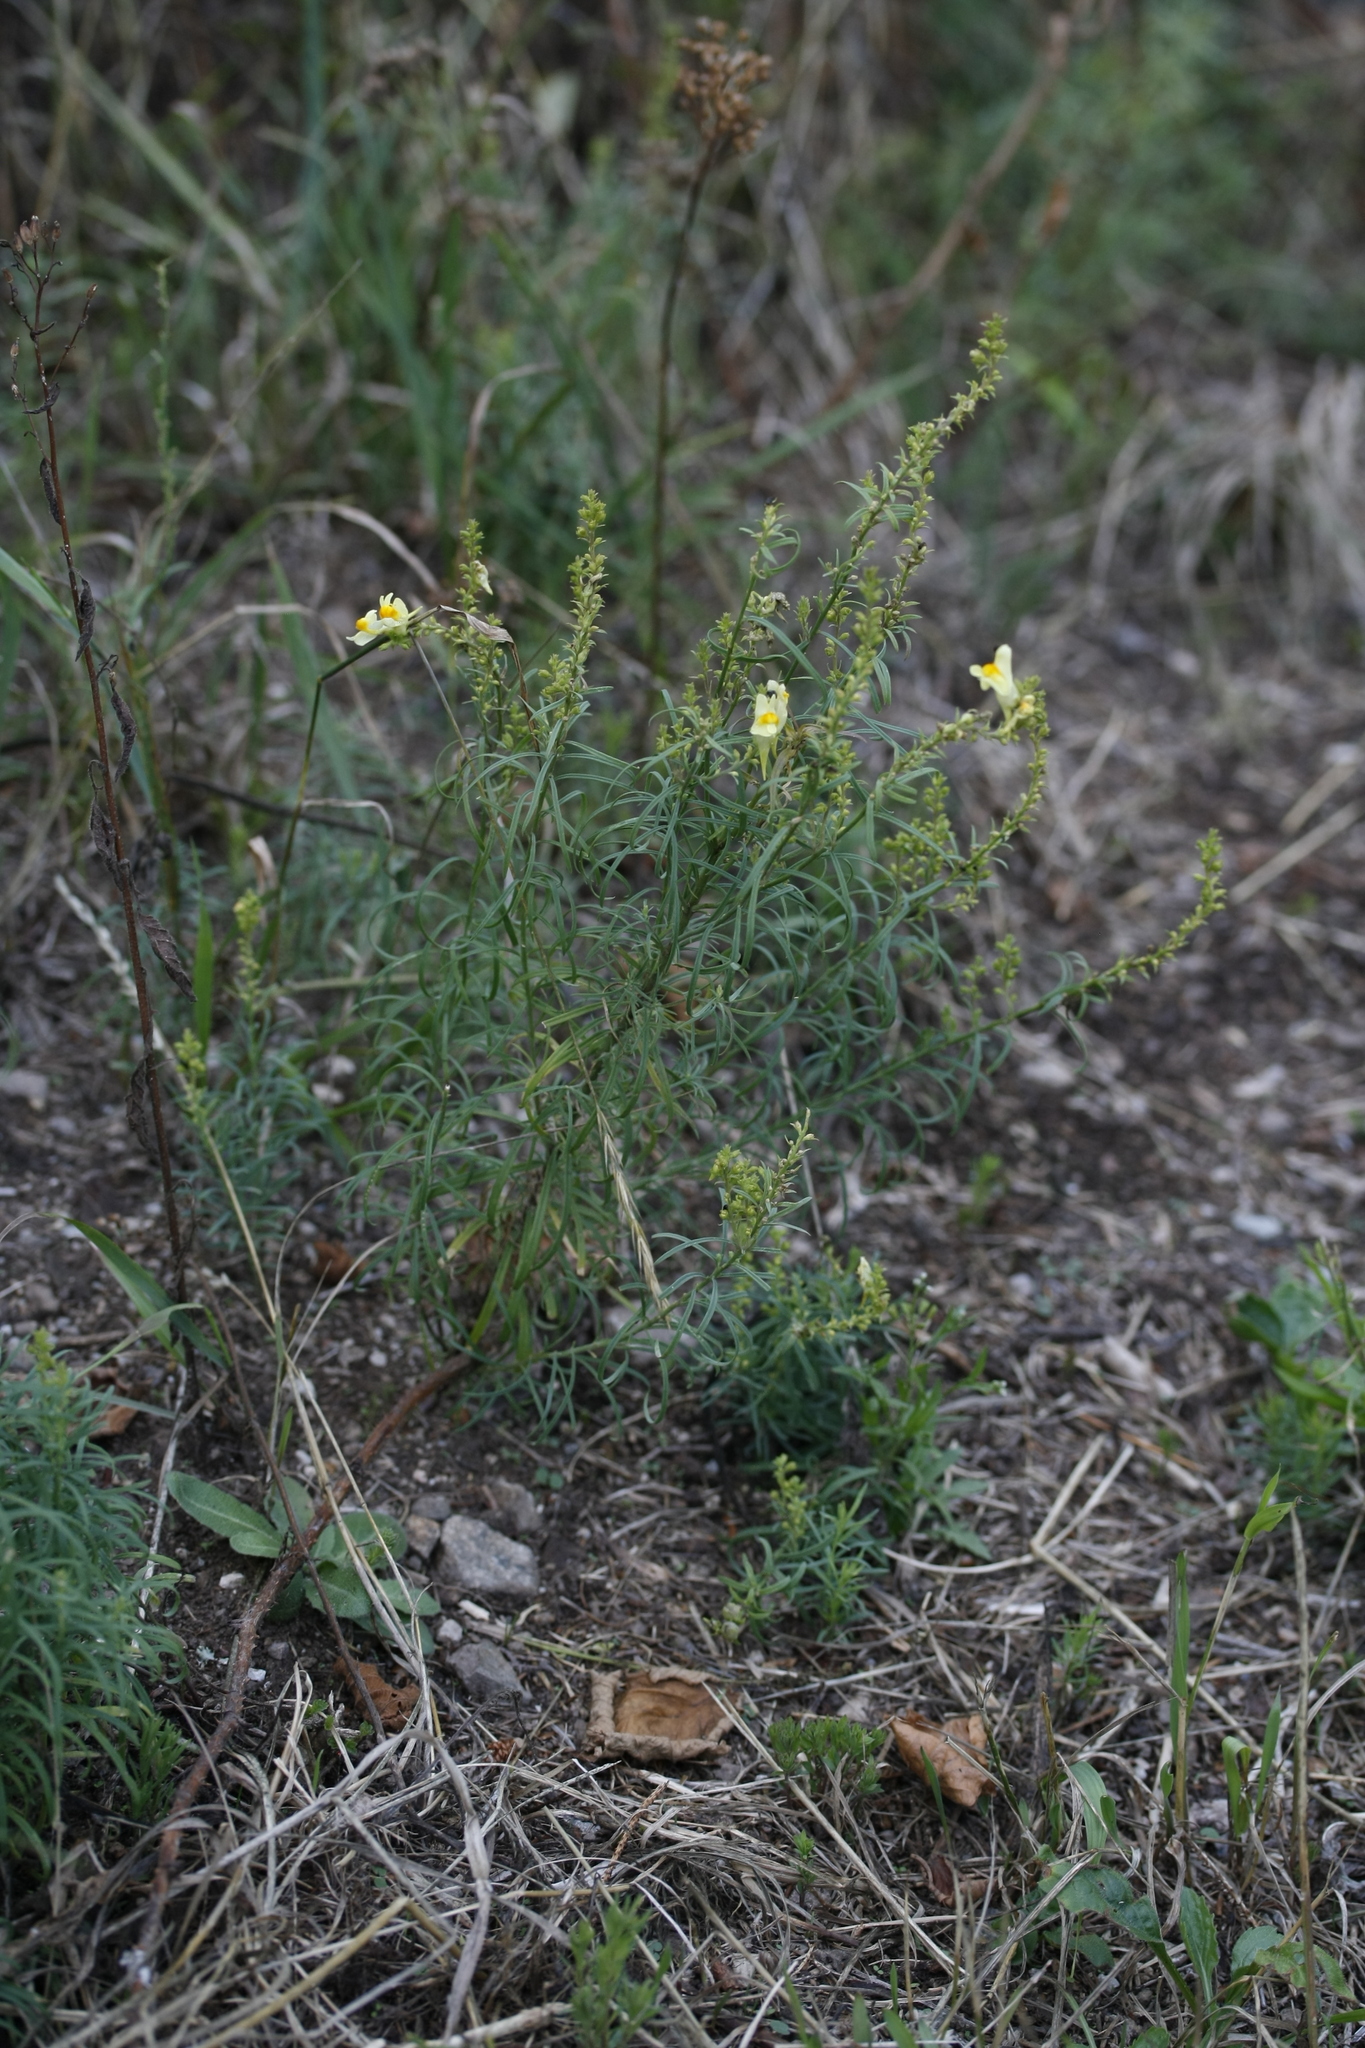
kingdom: Plantae
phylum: Tracheophyta
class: Magnoliopsida
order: Lamiales
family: Plantaginaceae
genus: Linaria
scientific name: Linaria vulgaris
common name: Butter and eggs
